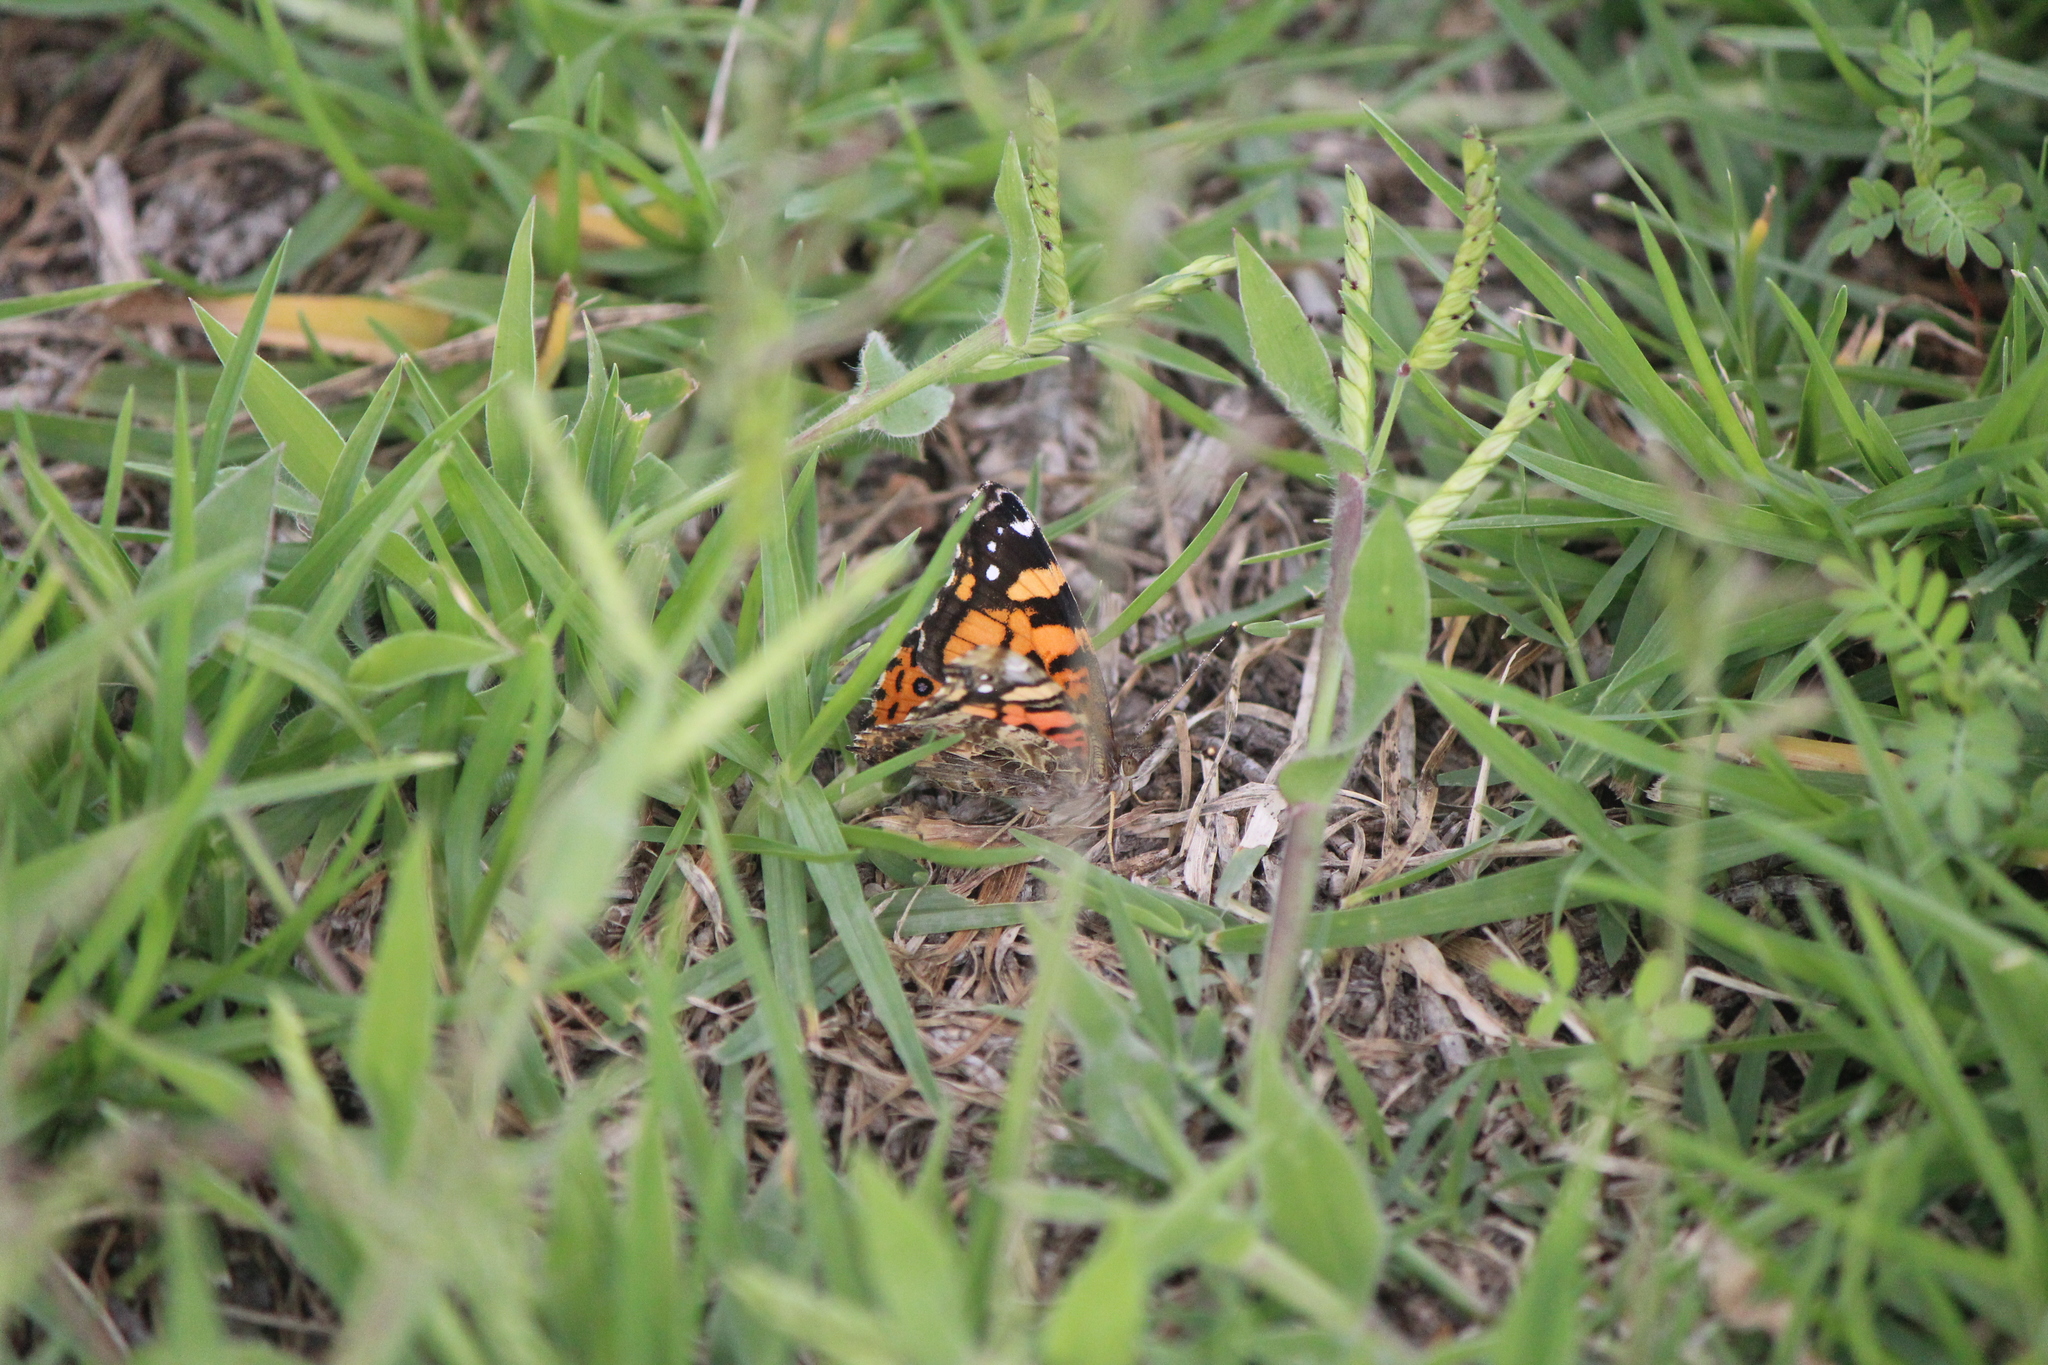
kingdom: Animalia
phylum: Arthropoda
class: Insecta
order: Lepidoptera
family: Nymphalidae
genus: Vanessa
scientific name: Vanessa annabella
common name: West coast lady
